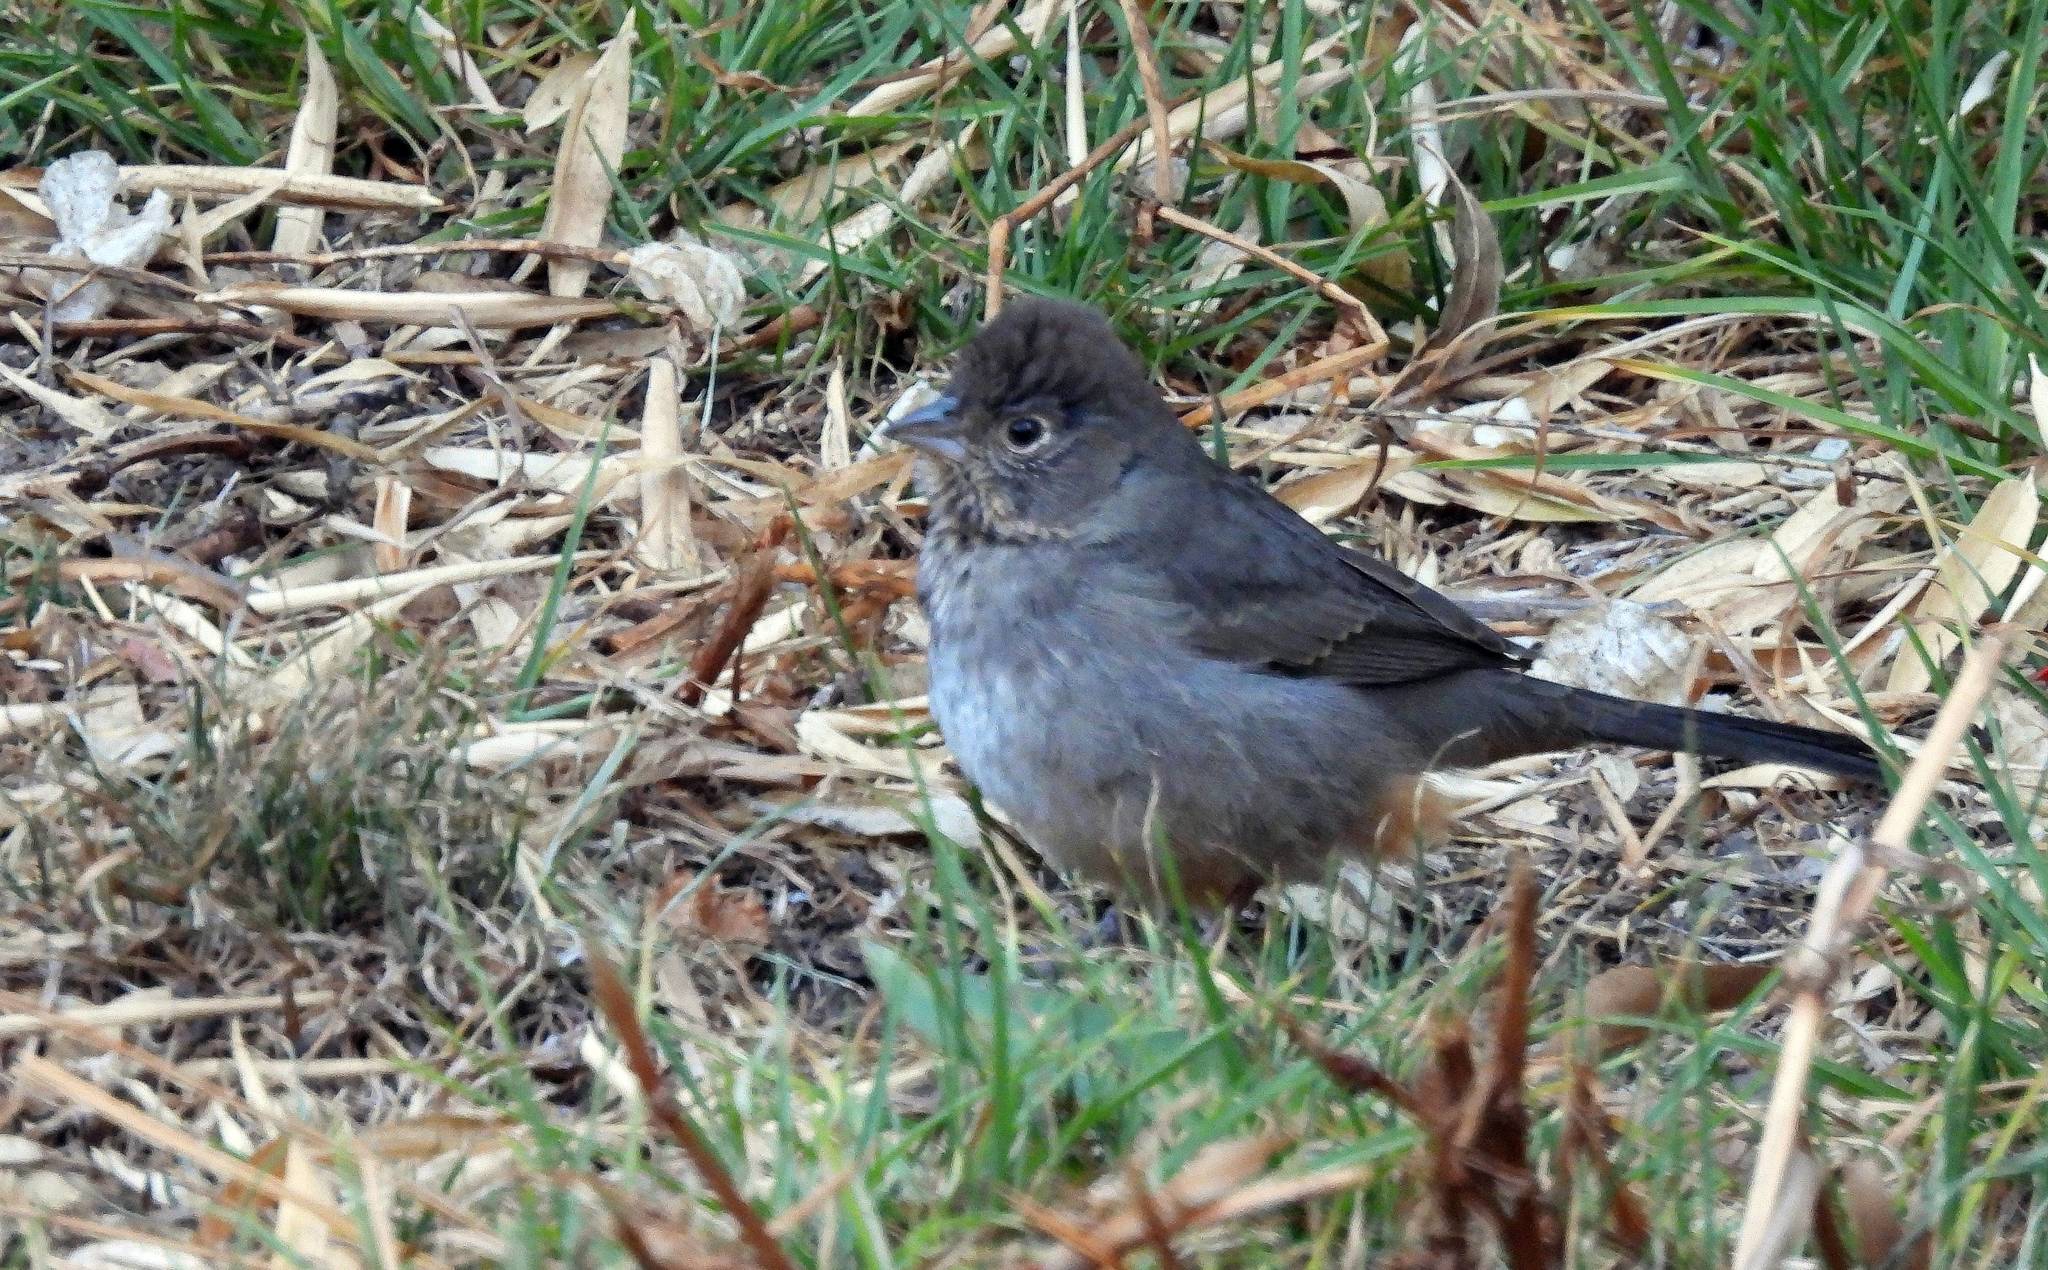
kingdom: Animalia
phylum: Chordata
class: Aves
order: Passeriformes
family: Passerellidae
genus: Melozone
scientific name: Melozone fusca
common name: Canyon towhee
